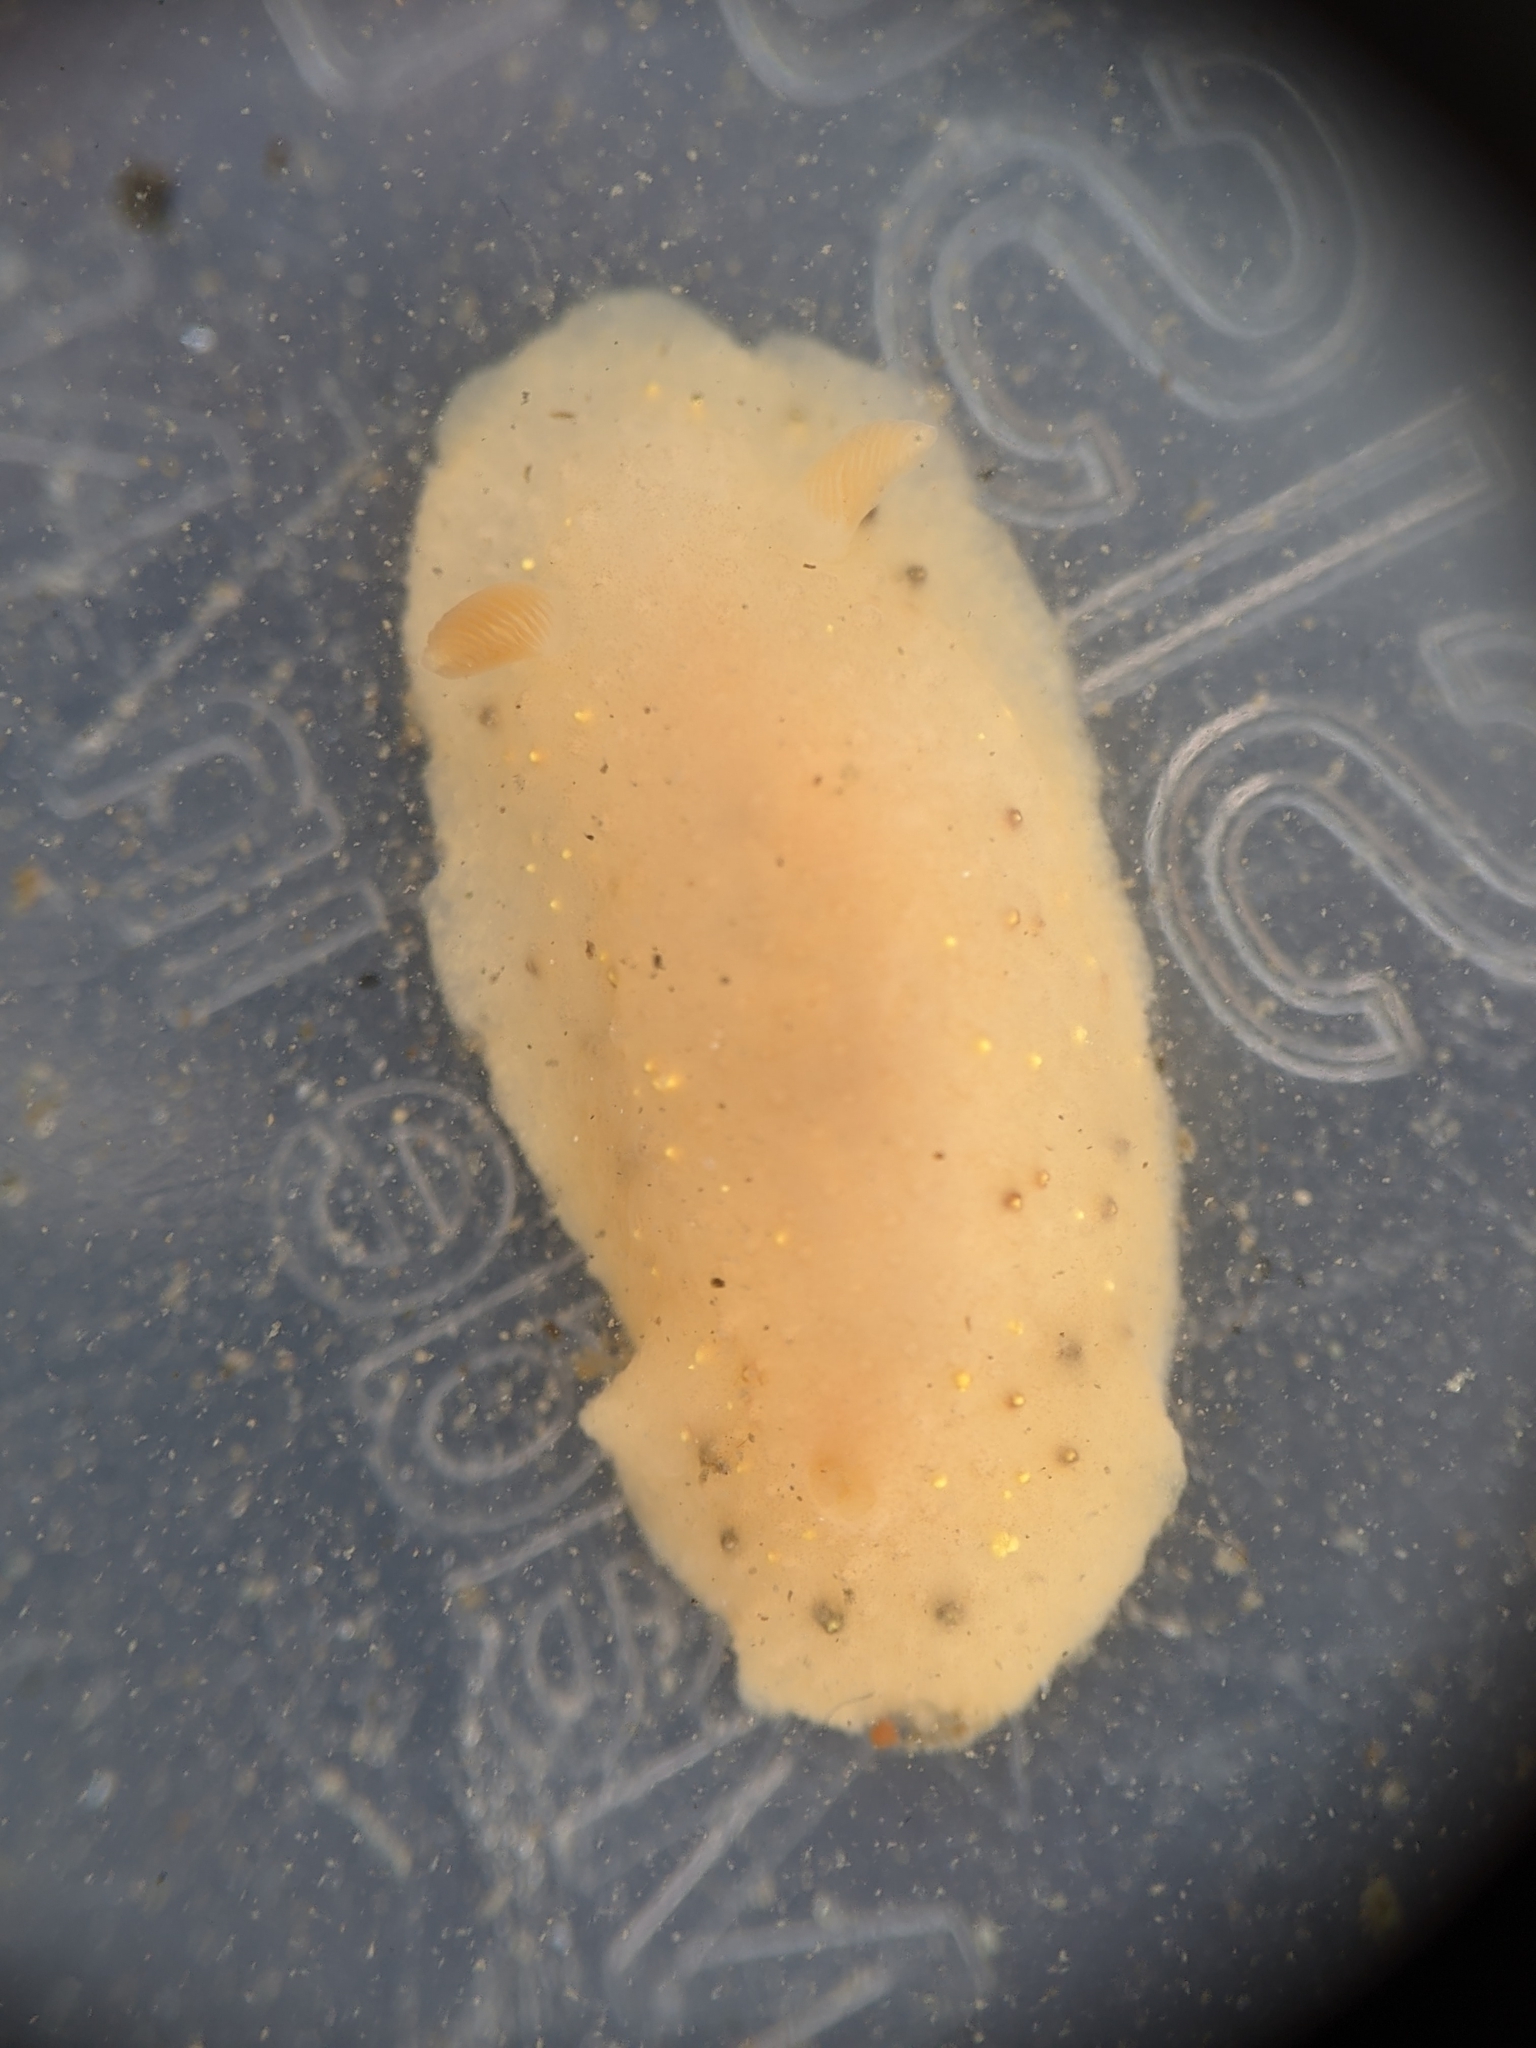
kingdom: Animalia
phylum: Mollusca
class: Gastropoda
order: Nudibranchia
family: Cadlinidae
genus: Cadlina
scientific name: Cadlina sparsa
